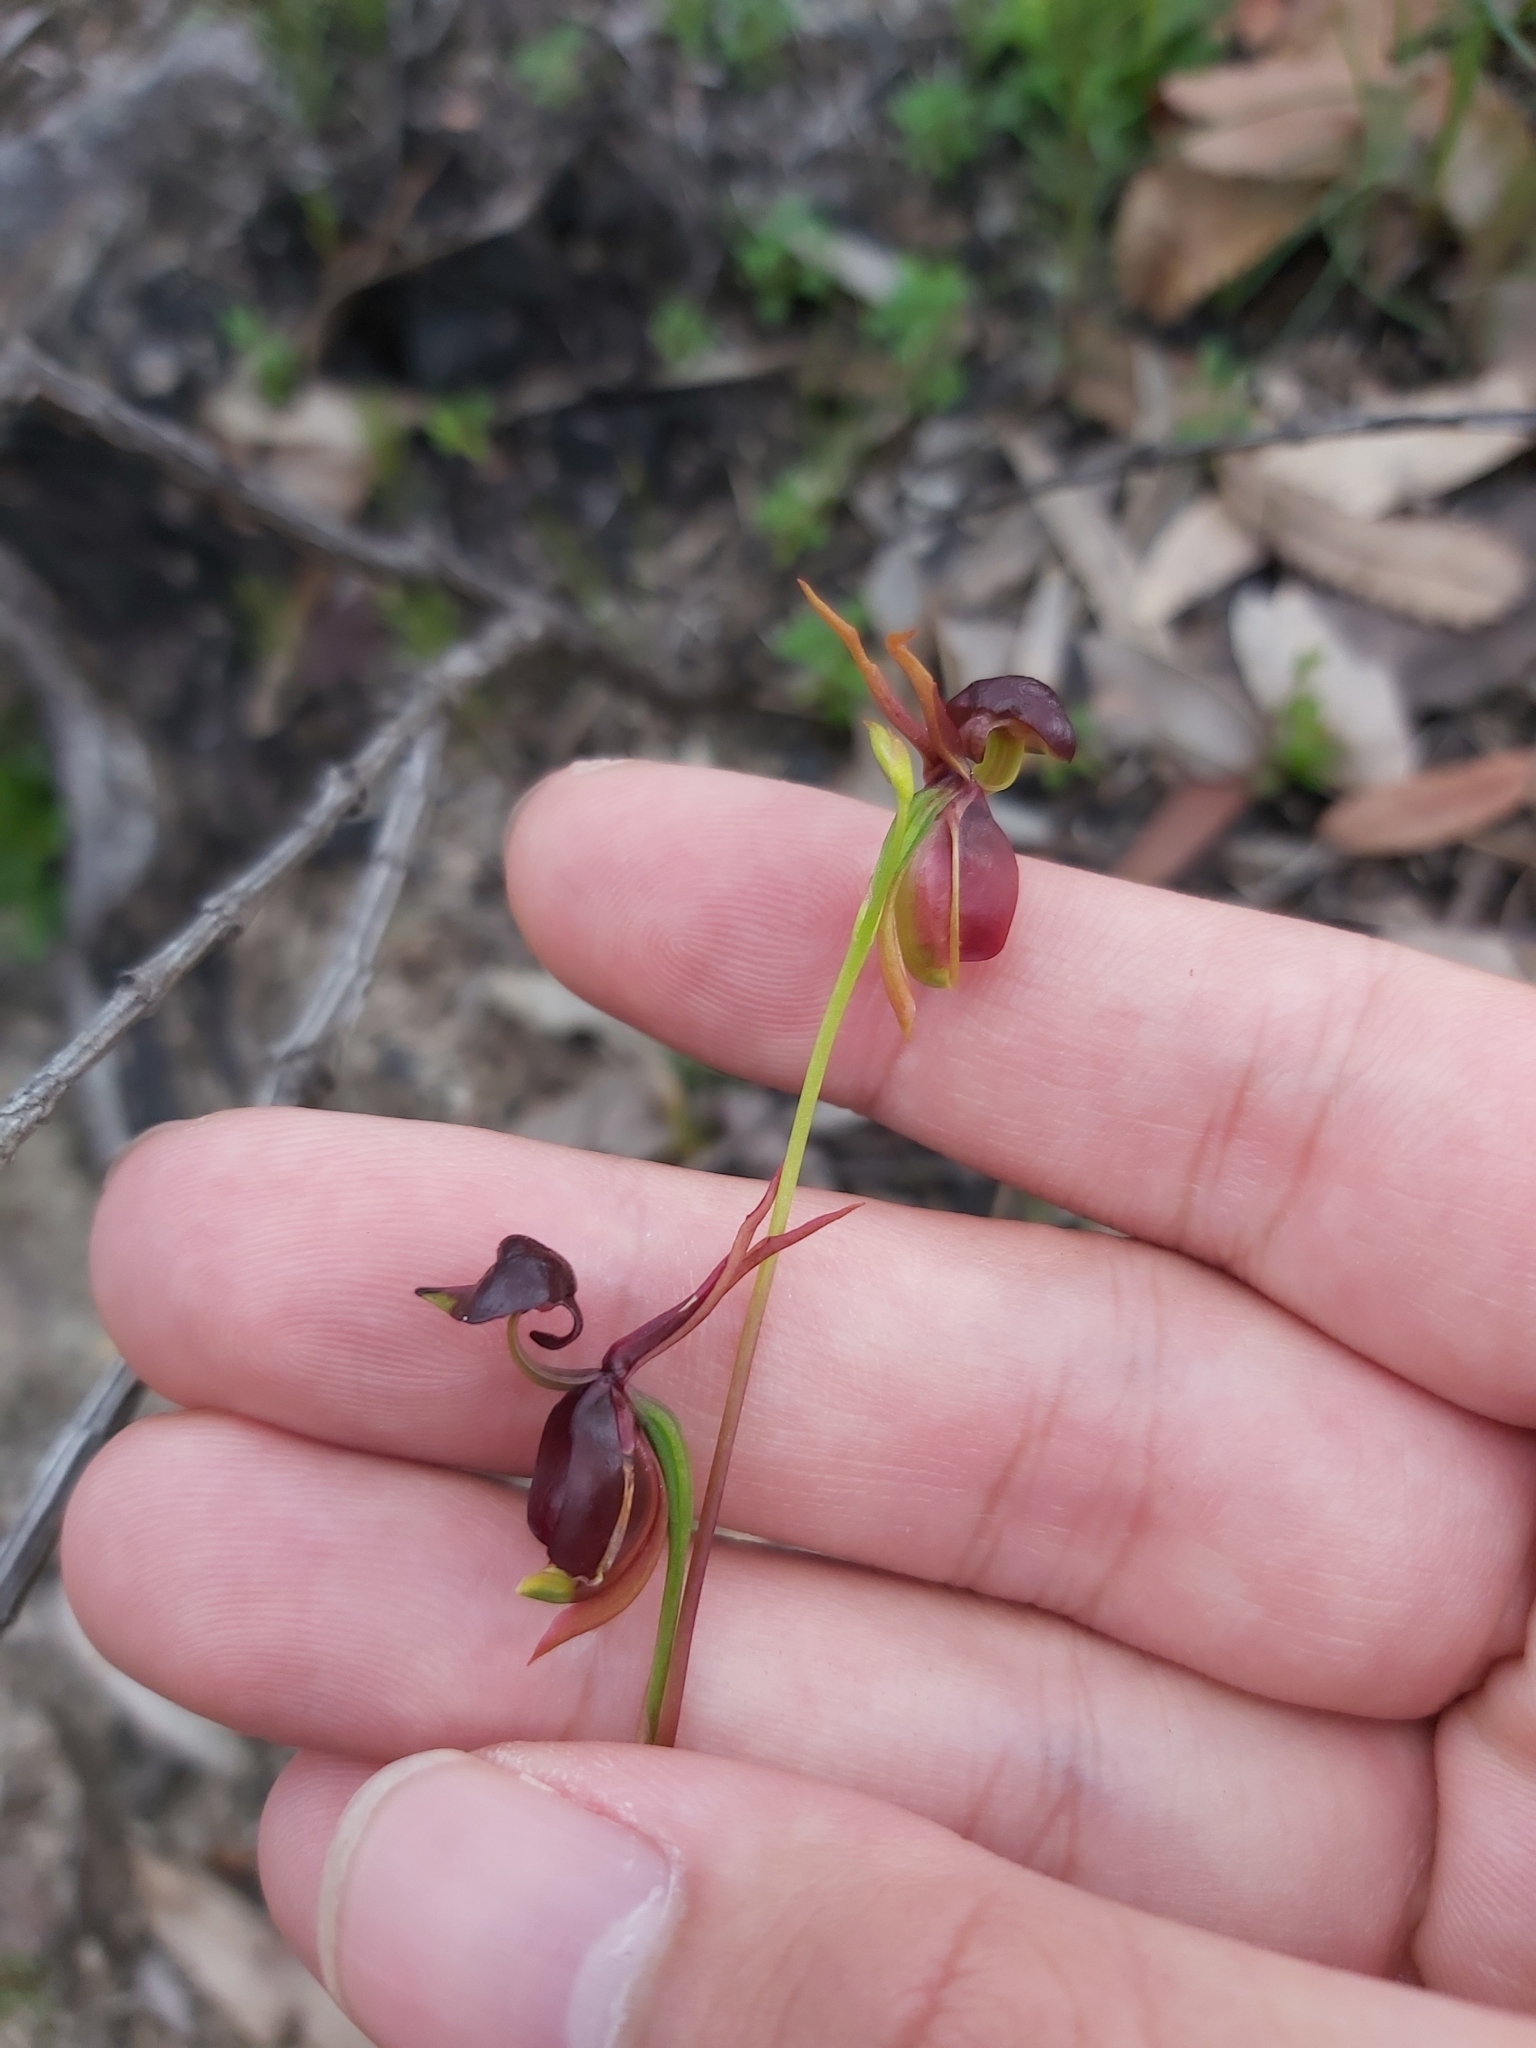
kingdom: Plantae
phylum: Tracheophyta
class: Liliopsida
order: Asparagales
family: Orchidaceae
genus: Caleana
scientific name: Caleana major
